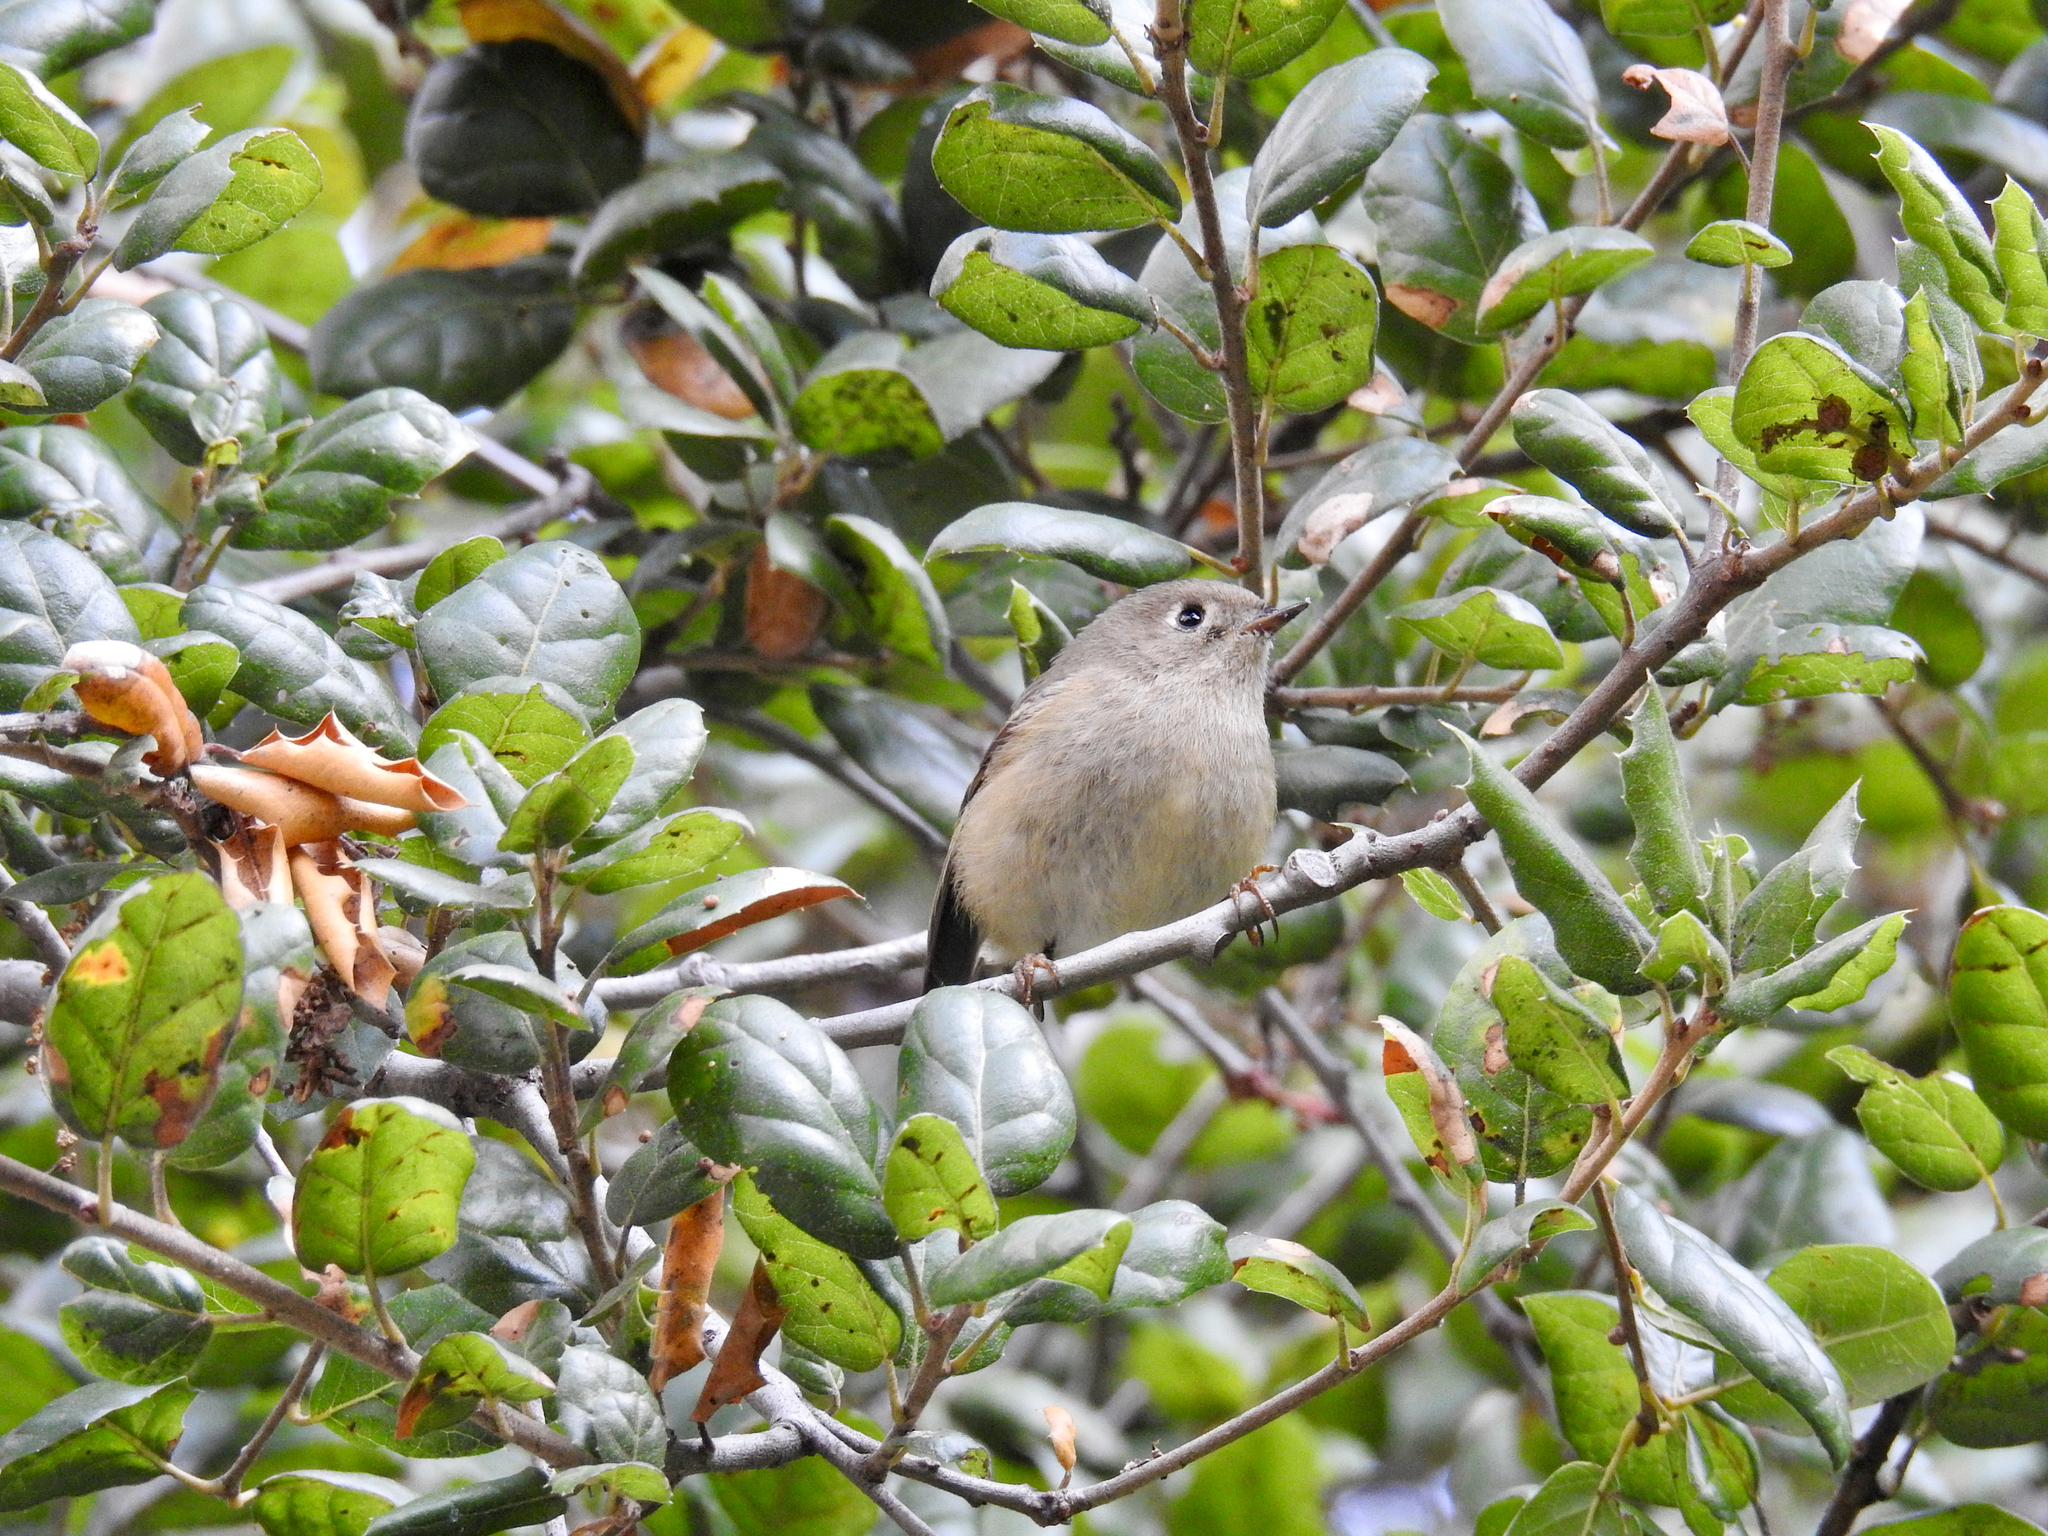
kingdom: Animalia
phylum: Chordata
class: Aves
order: Passeriformes
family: Regulidae
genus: Regulus
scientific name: Regulus calendula
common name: Ruby-crowned kinglet
